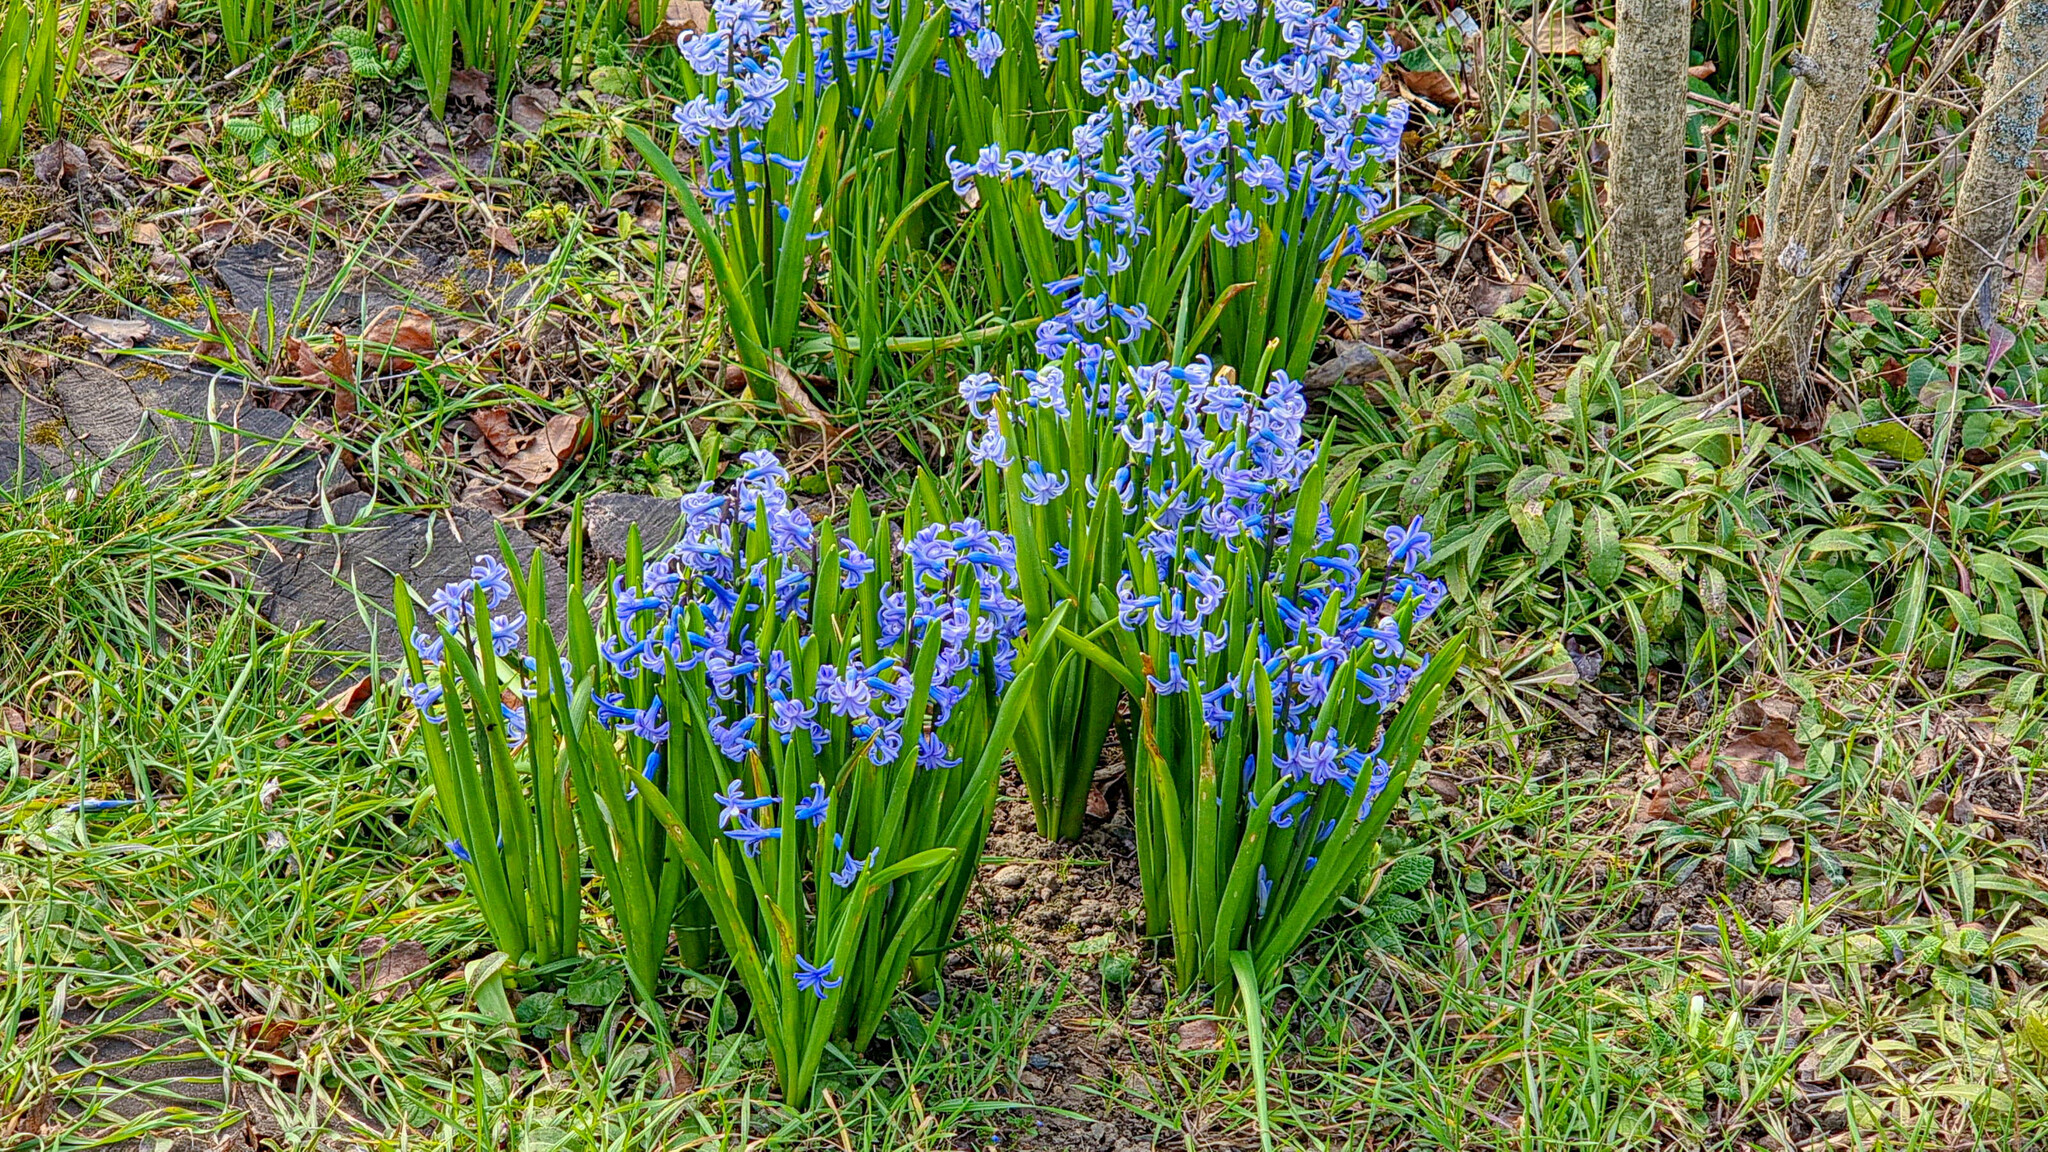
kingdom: Plantae
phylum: Tracheophyta
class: Liliopsida
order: Asparagales
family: Asparagaceae
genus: Hyacinthus
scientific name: Hyacinthus orientalis
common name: Hyacinth
